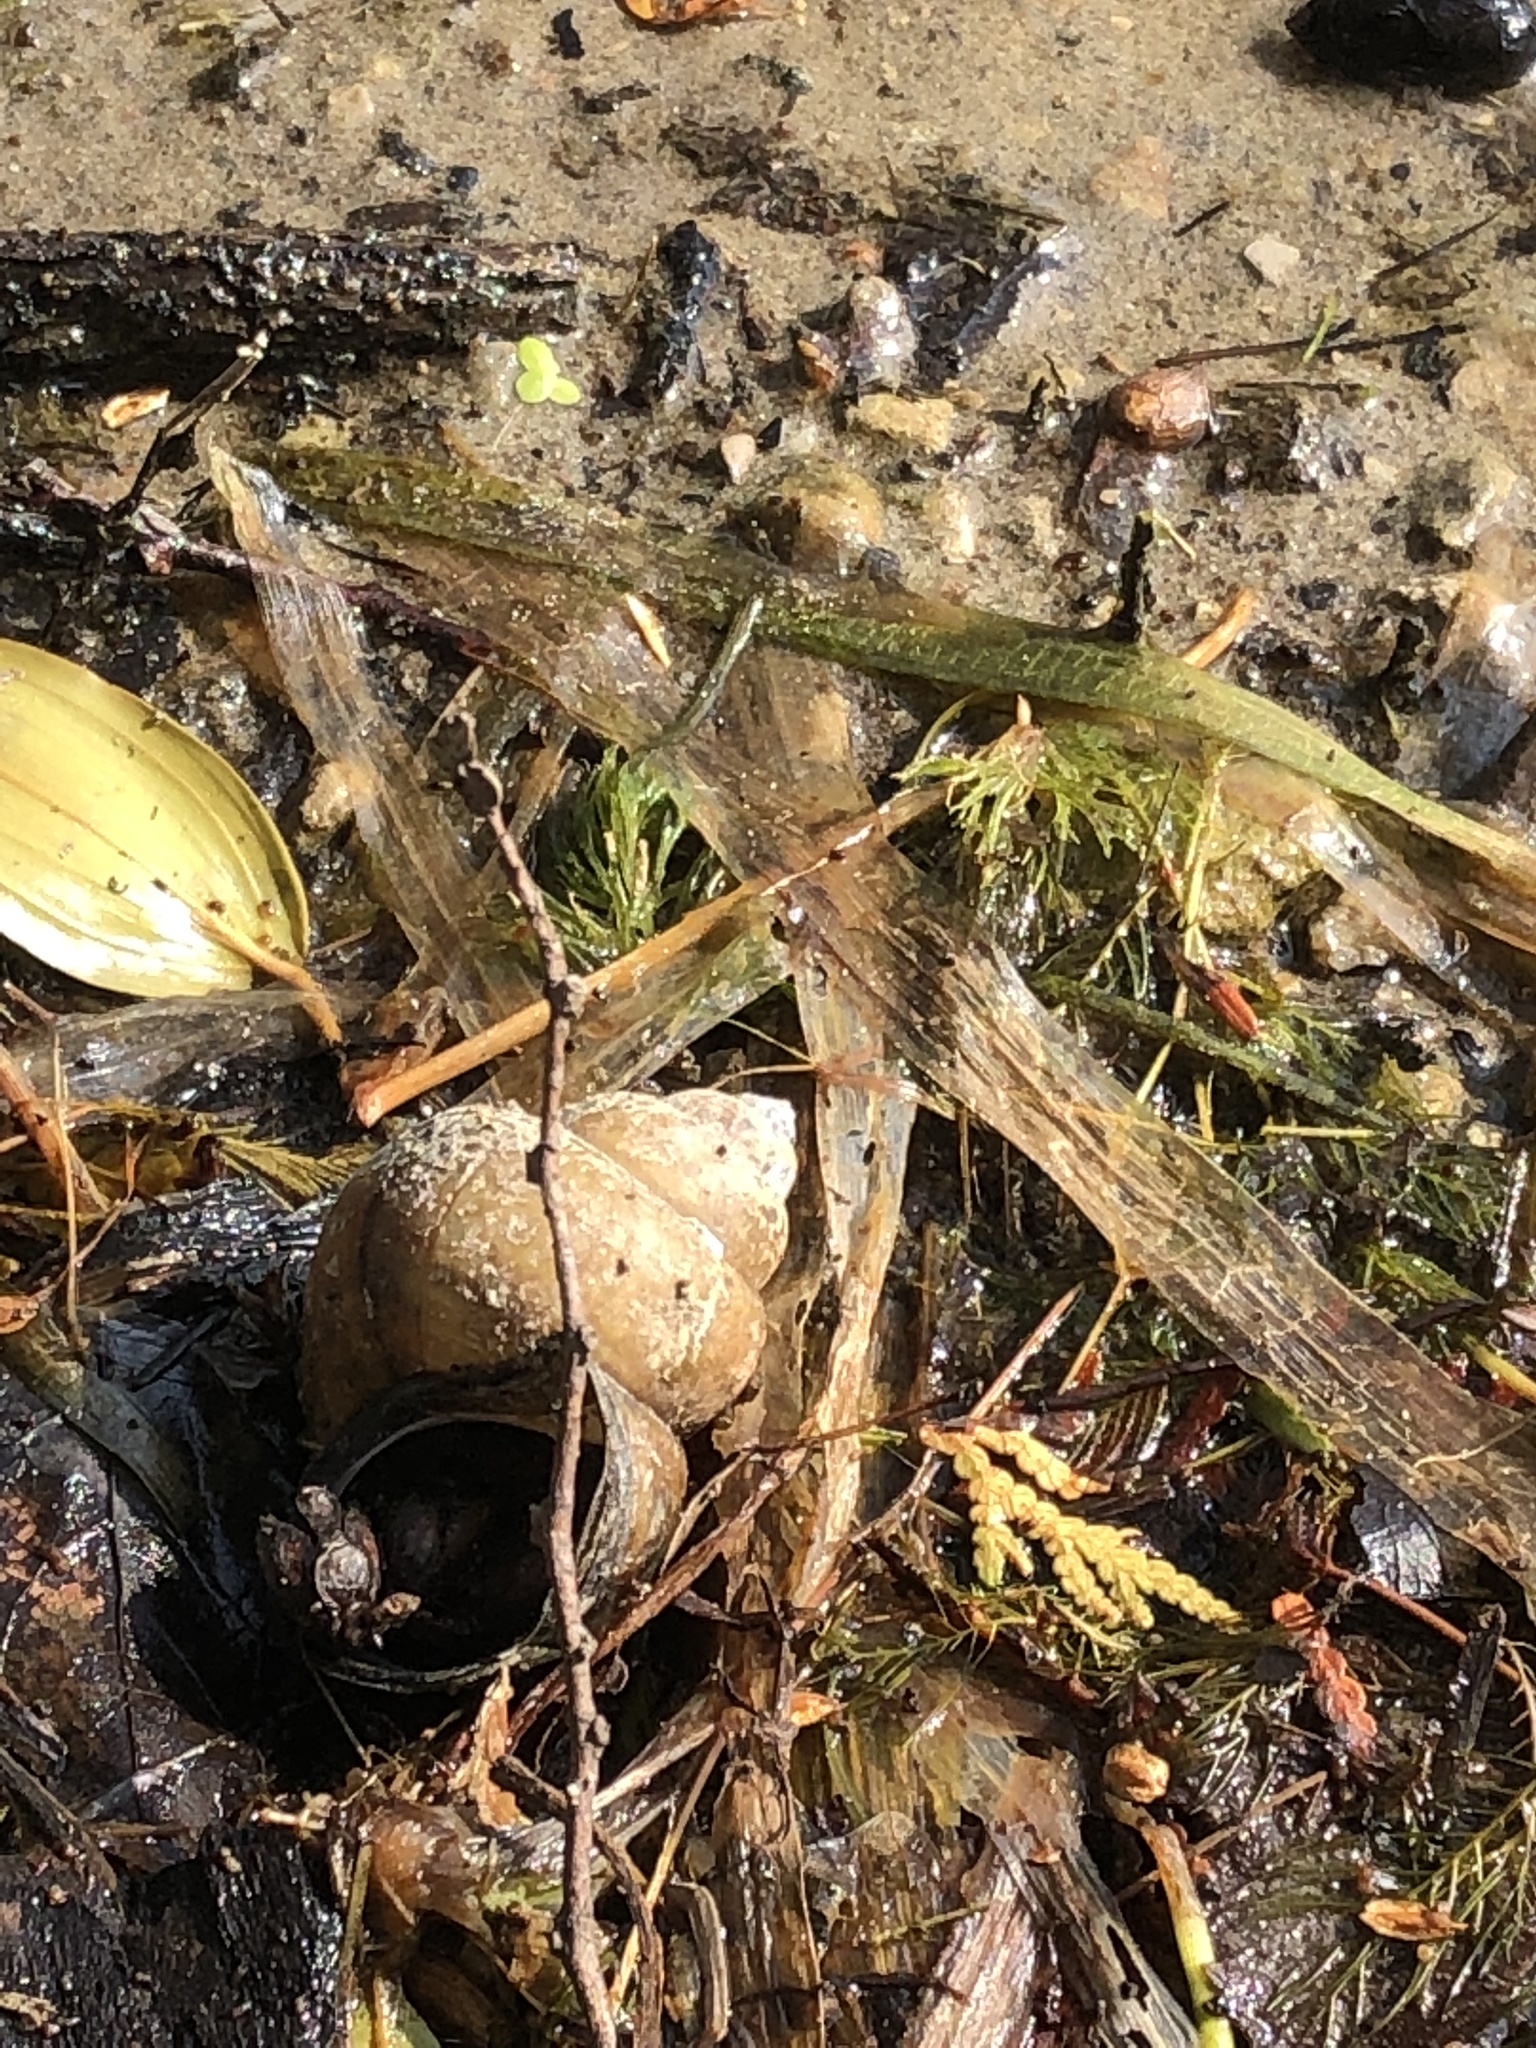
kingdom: Animalia
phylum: Mollusca
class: Gastropoda
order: Architaenioglossa
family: Viviparidae
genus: Cipangopaludina
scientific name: Cipangopaludina chinensis
